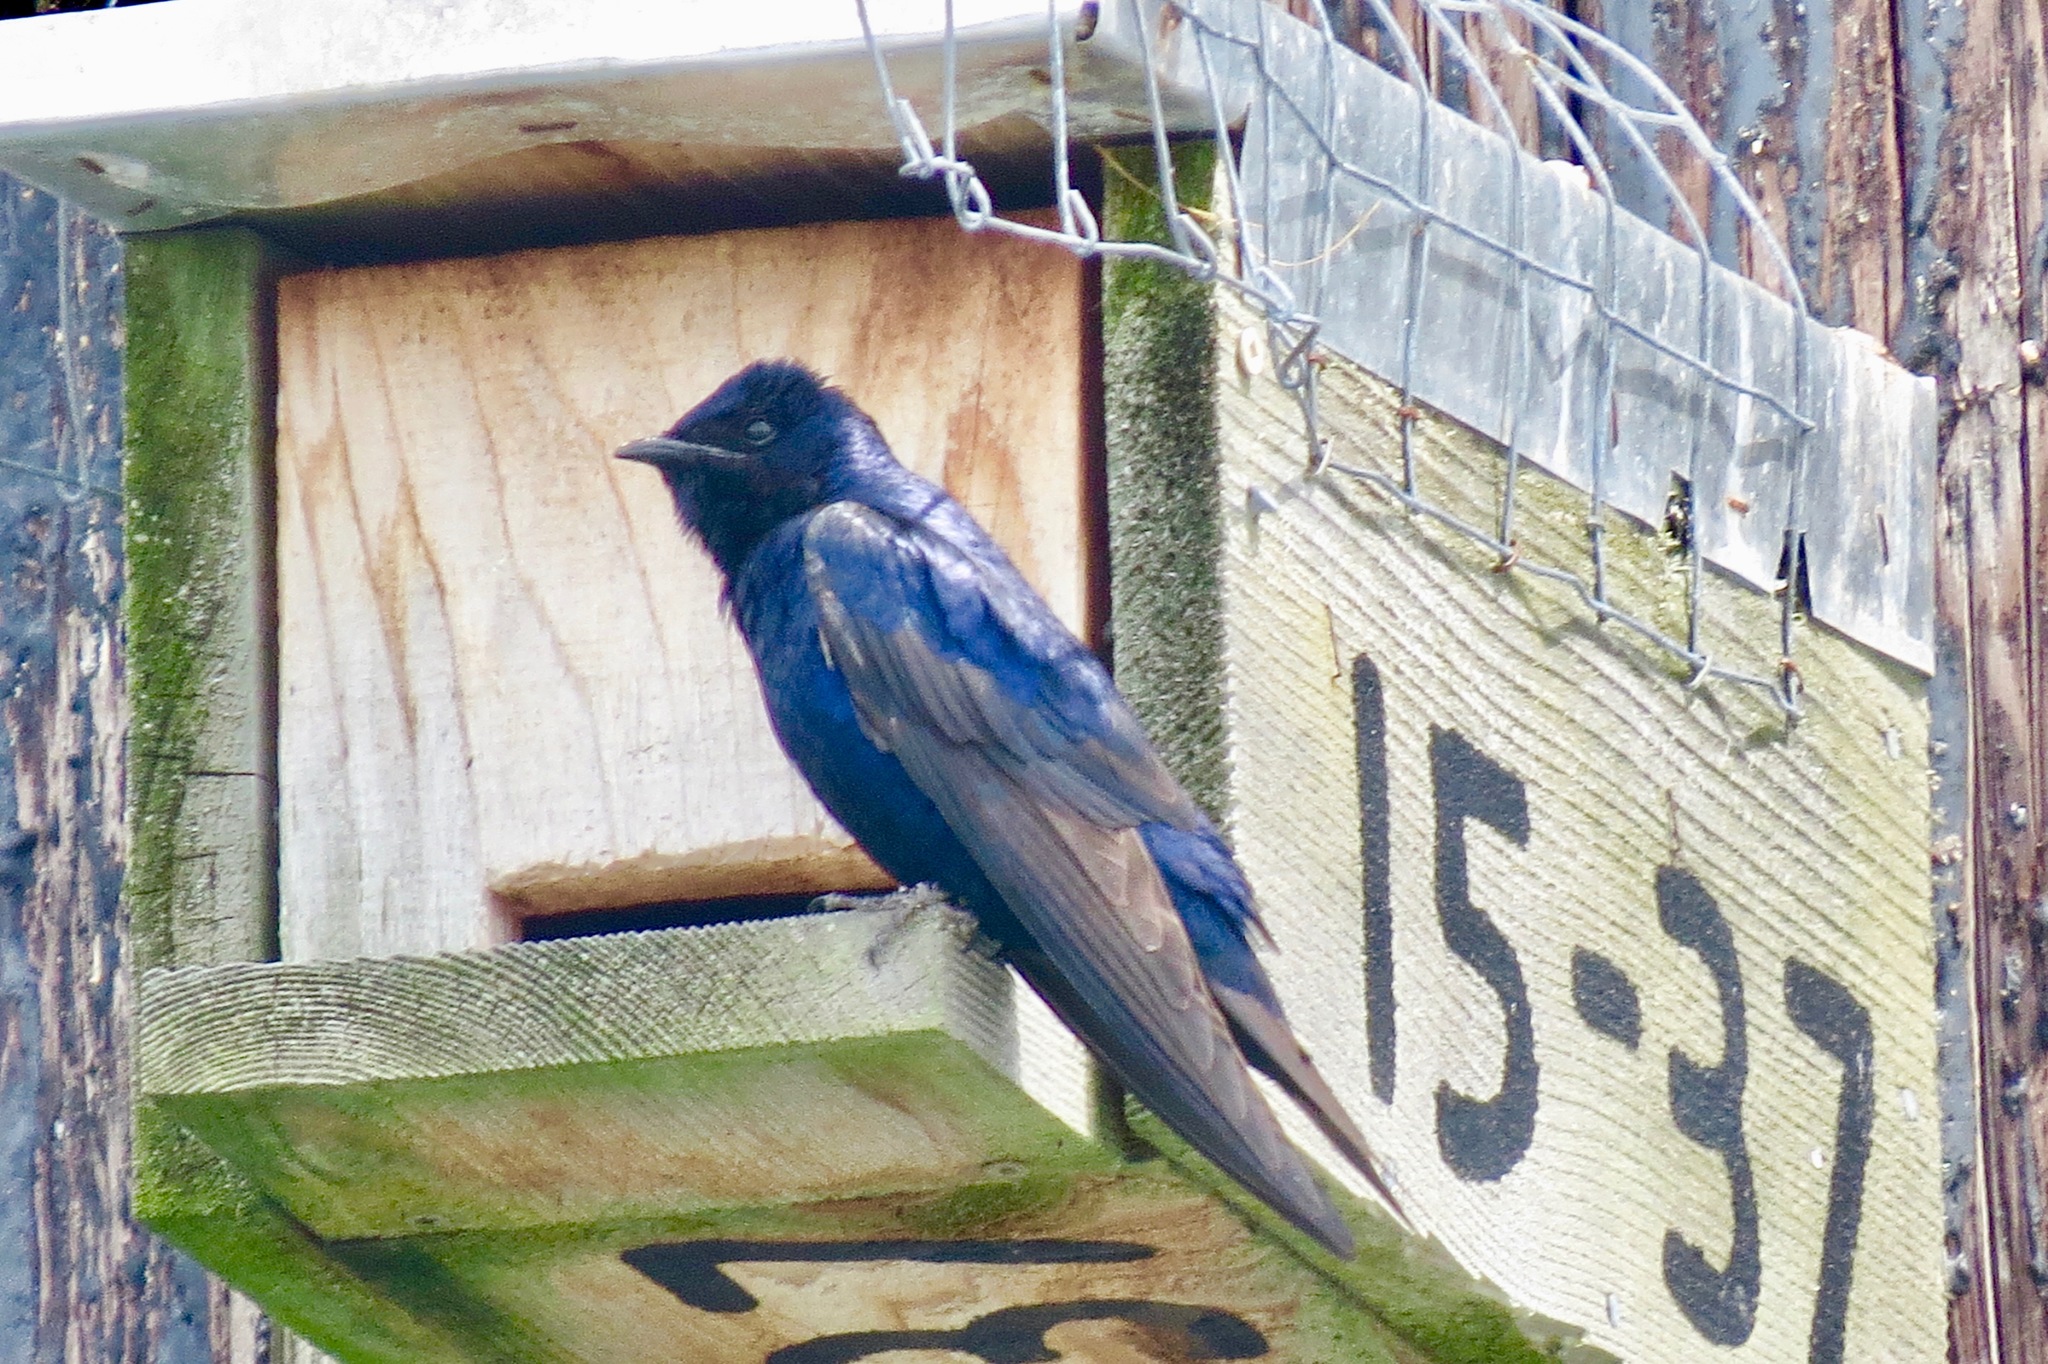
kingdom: Animalia
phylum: Chordata
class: Aves
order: Passeriformes
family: Hirundinidae
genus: Progne
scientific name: Progne subis
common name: Purple martin
